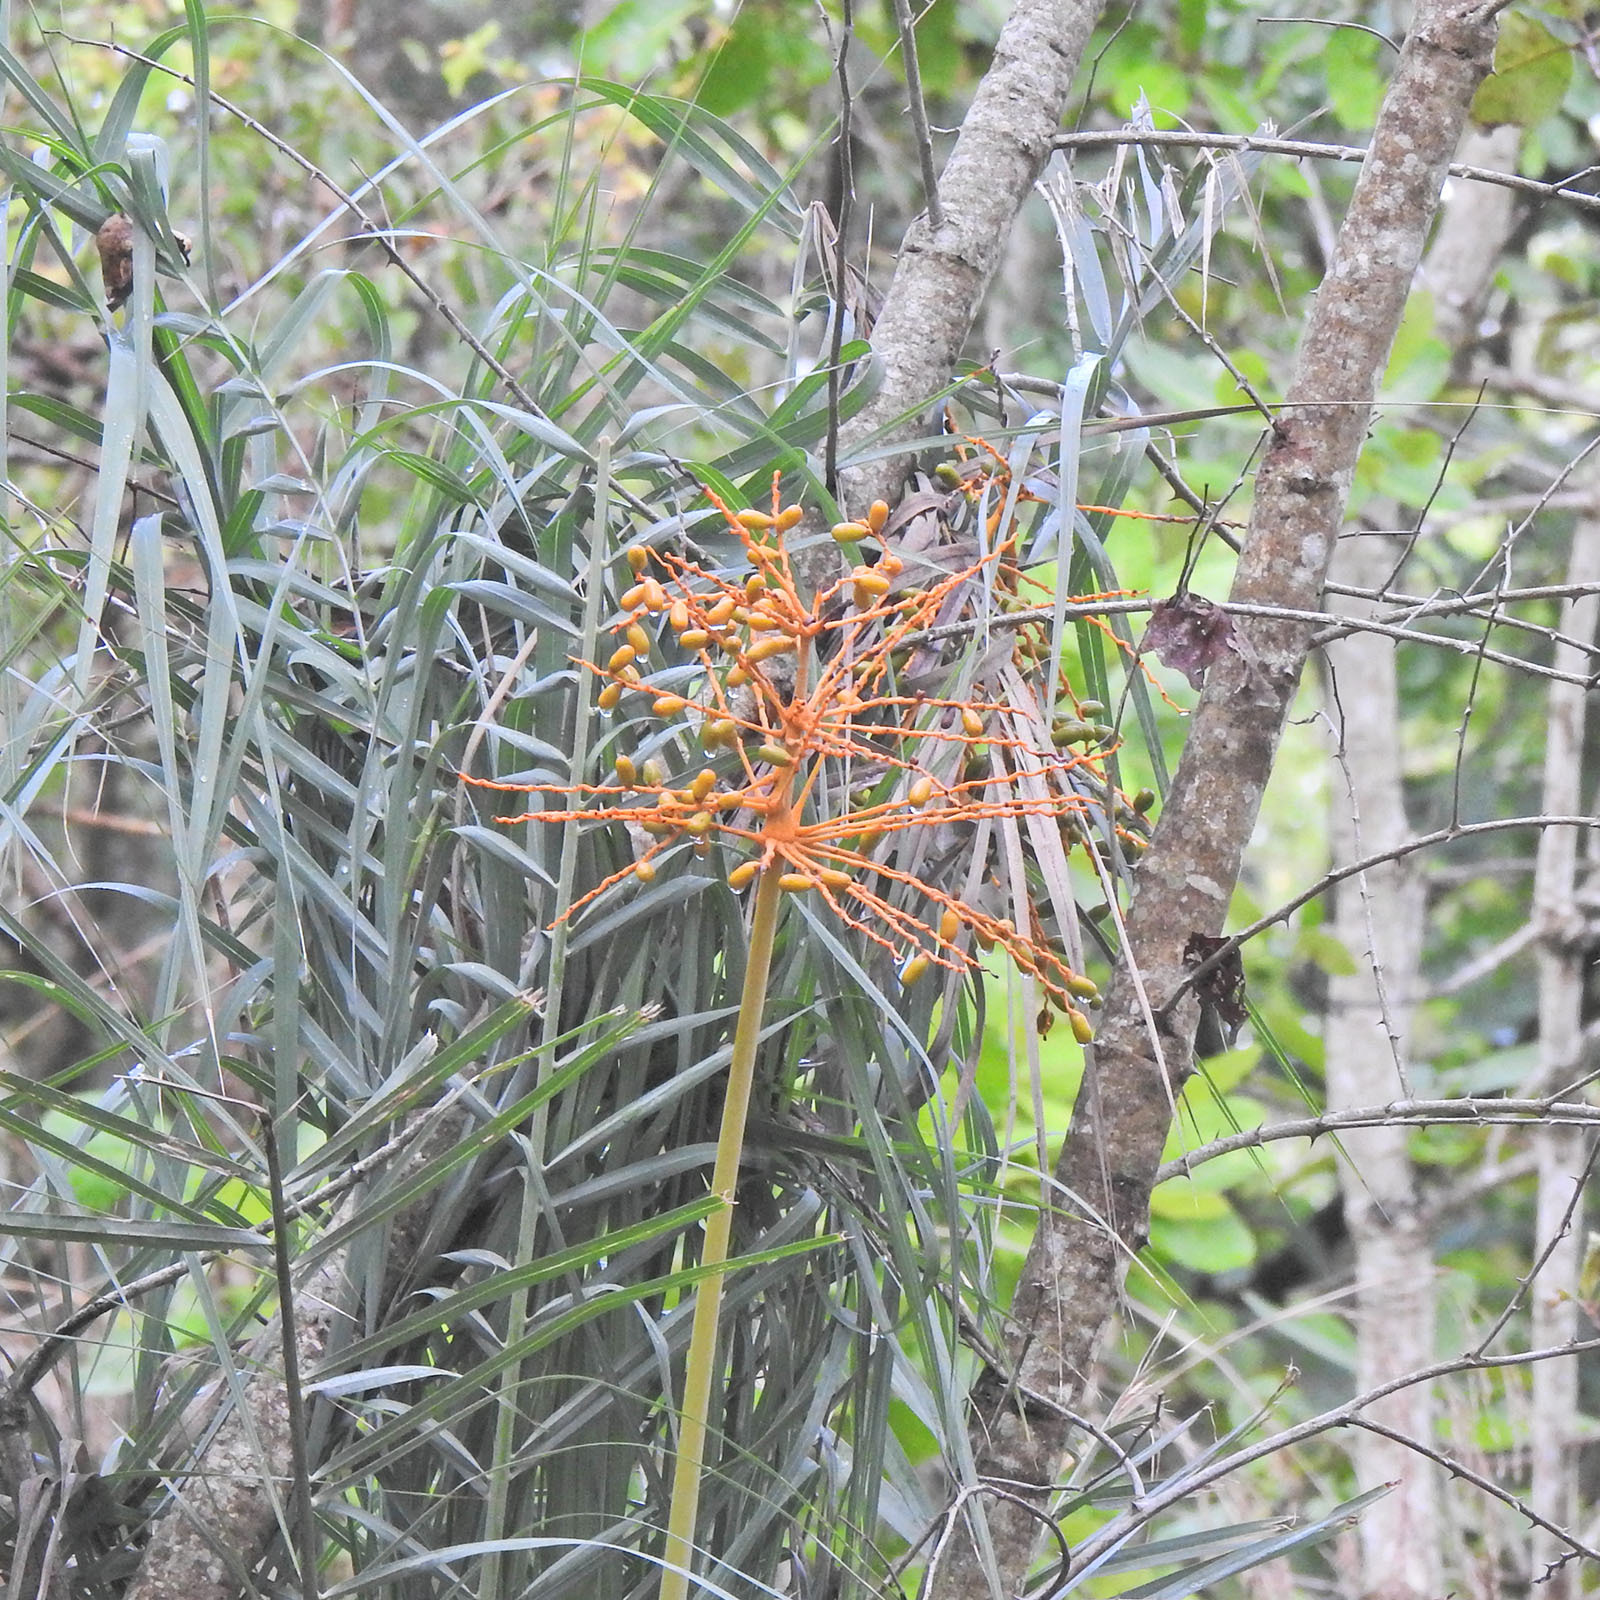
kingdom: Plantae
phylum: Tracheophyta
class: Liliopsida
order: Arecales
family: Arecaceae
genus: Phoenix
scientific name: Phoenix dactylifera
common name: Date palm
